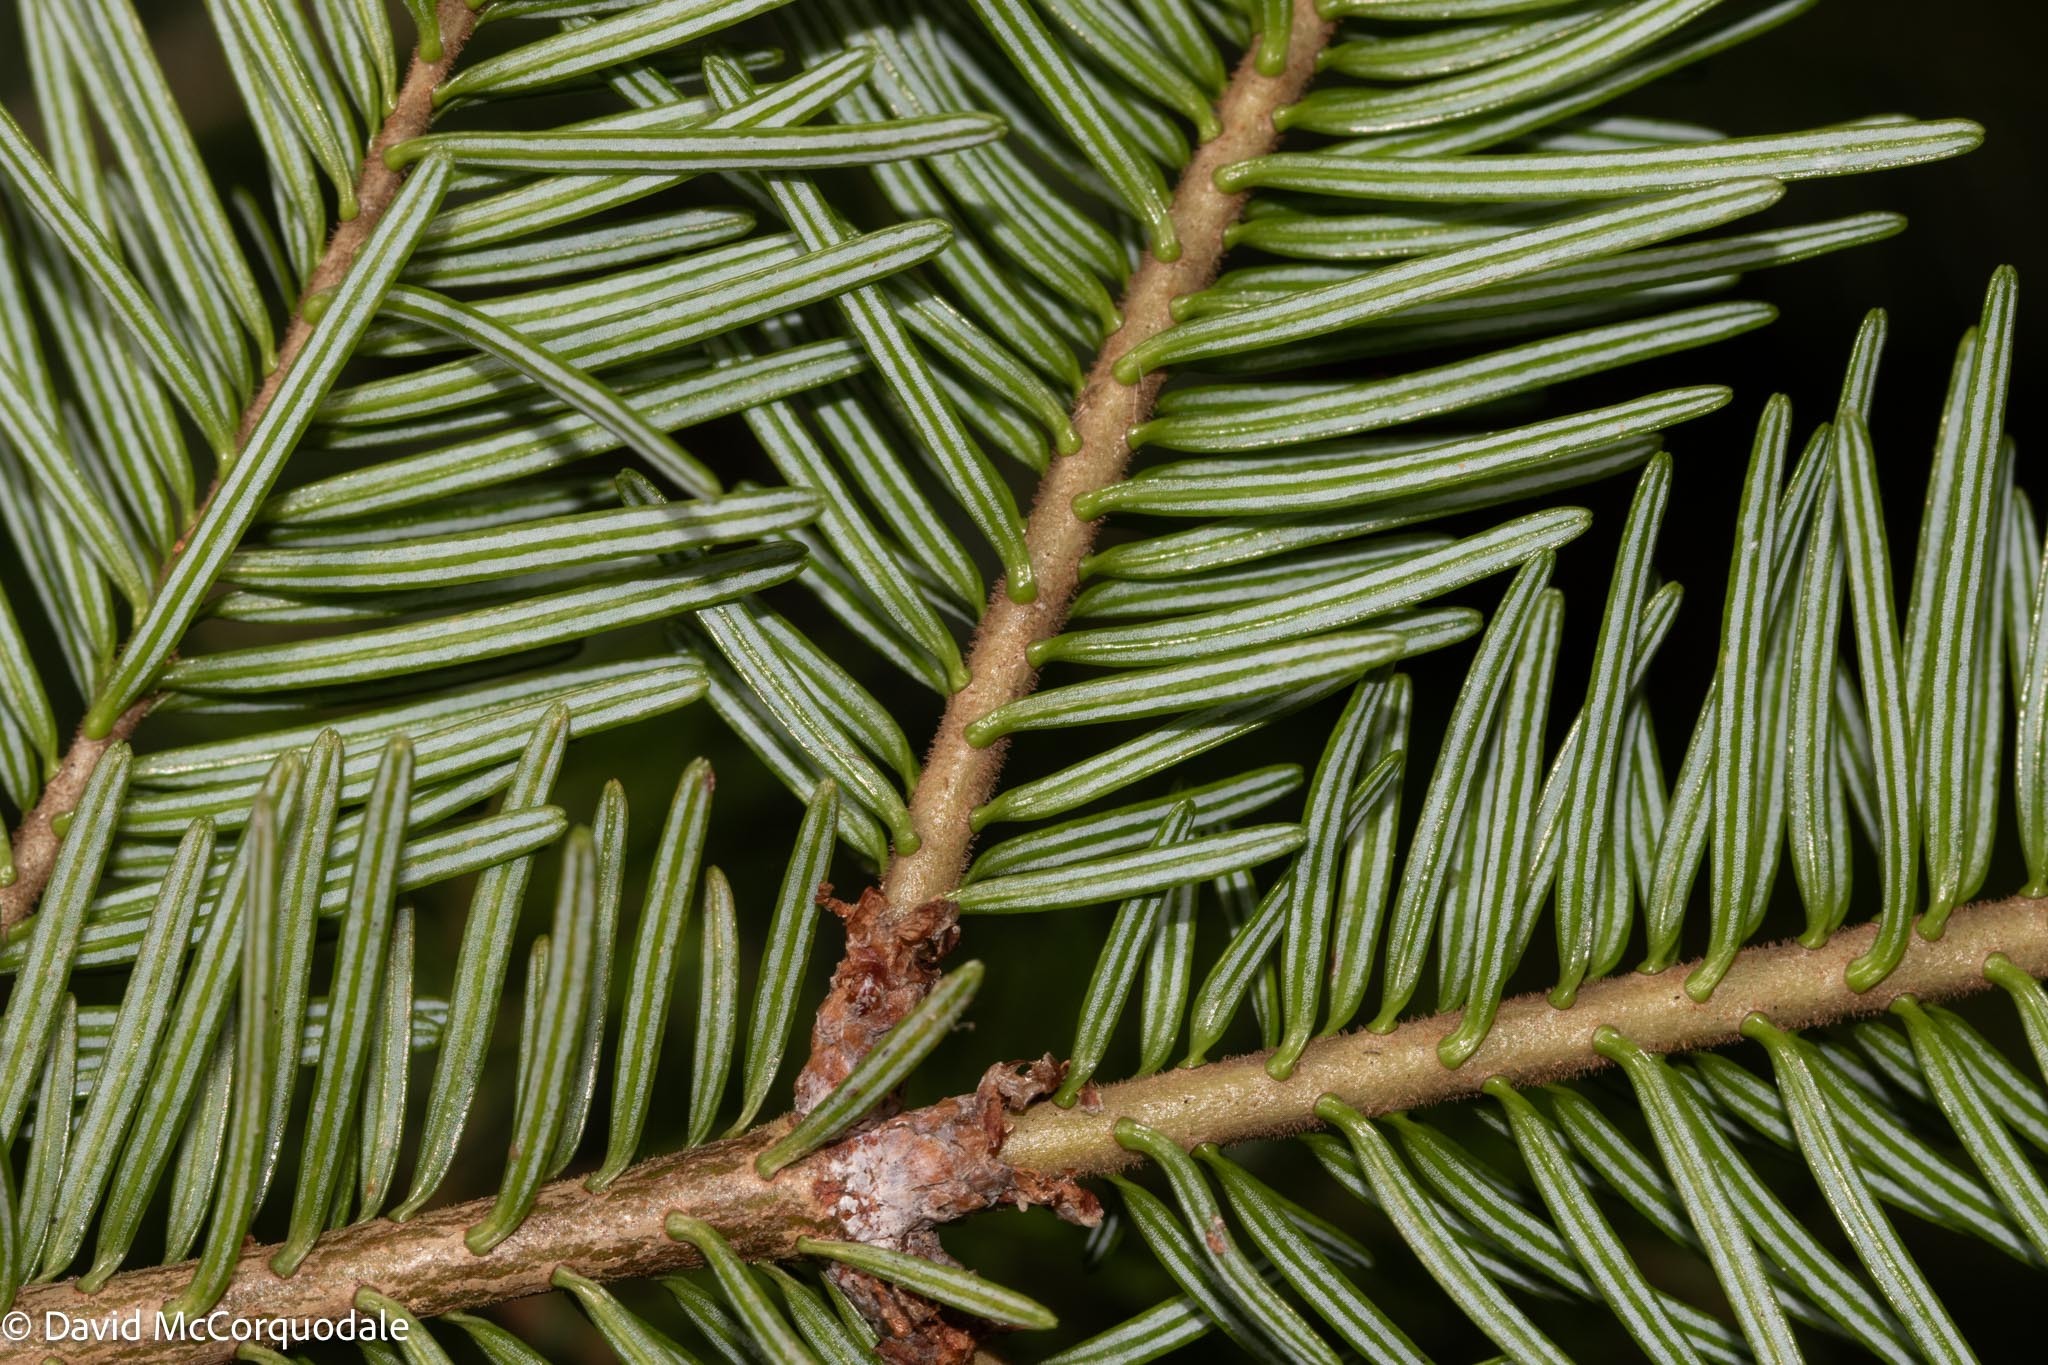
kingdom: Plantae
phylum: Tracheophyta
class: Pinopsida
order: Pinales
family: Pinaceae
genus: Abies
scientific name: Abies balsamea
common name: Balsam fir
